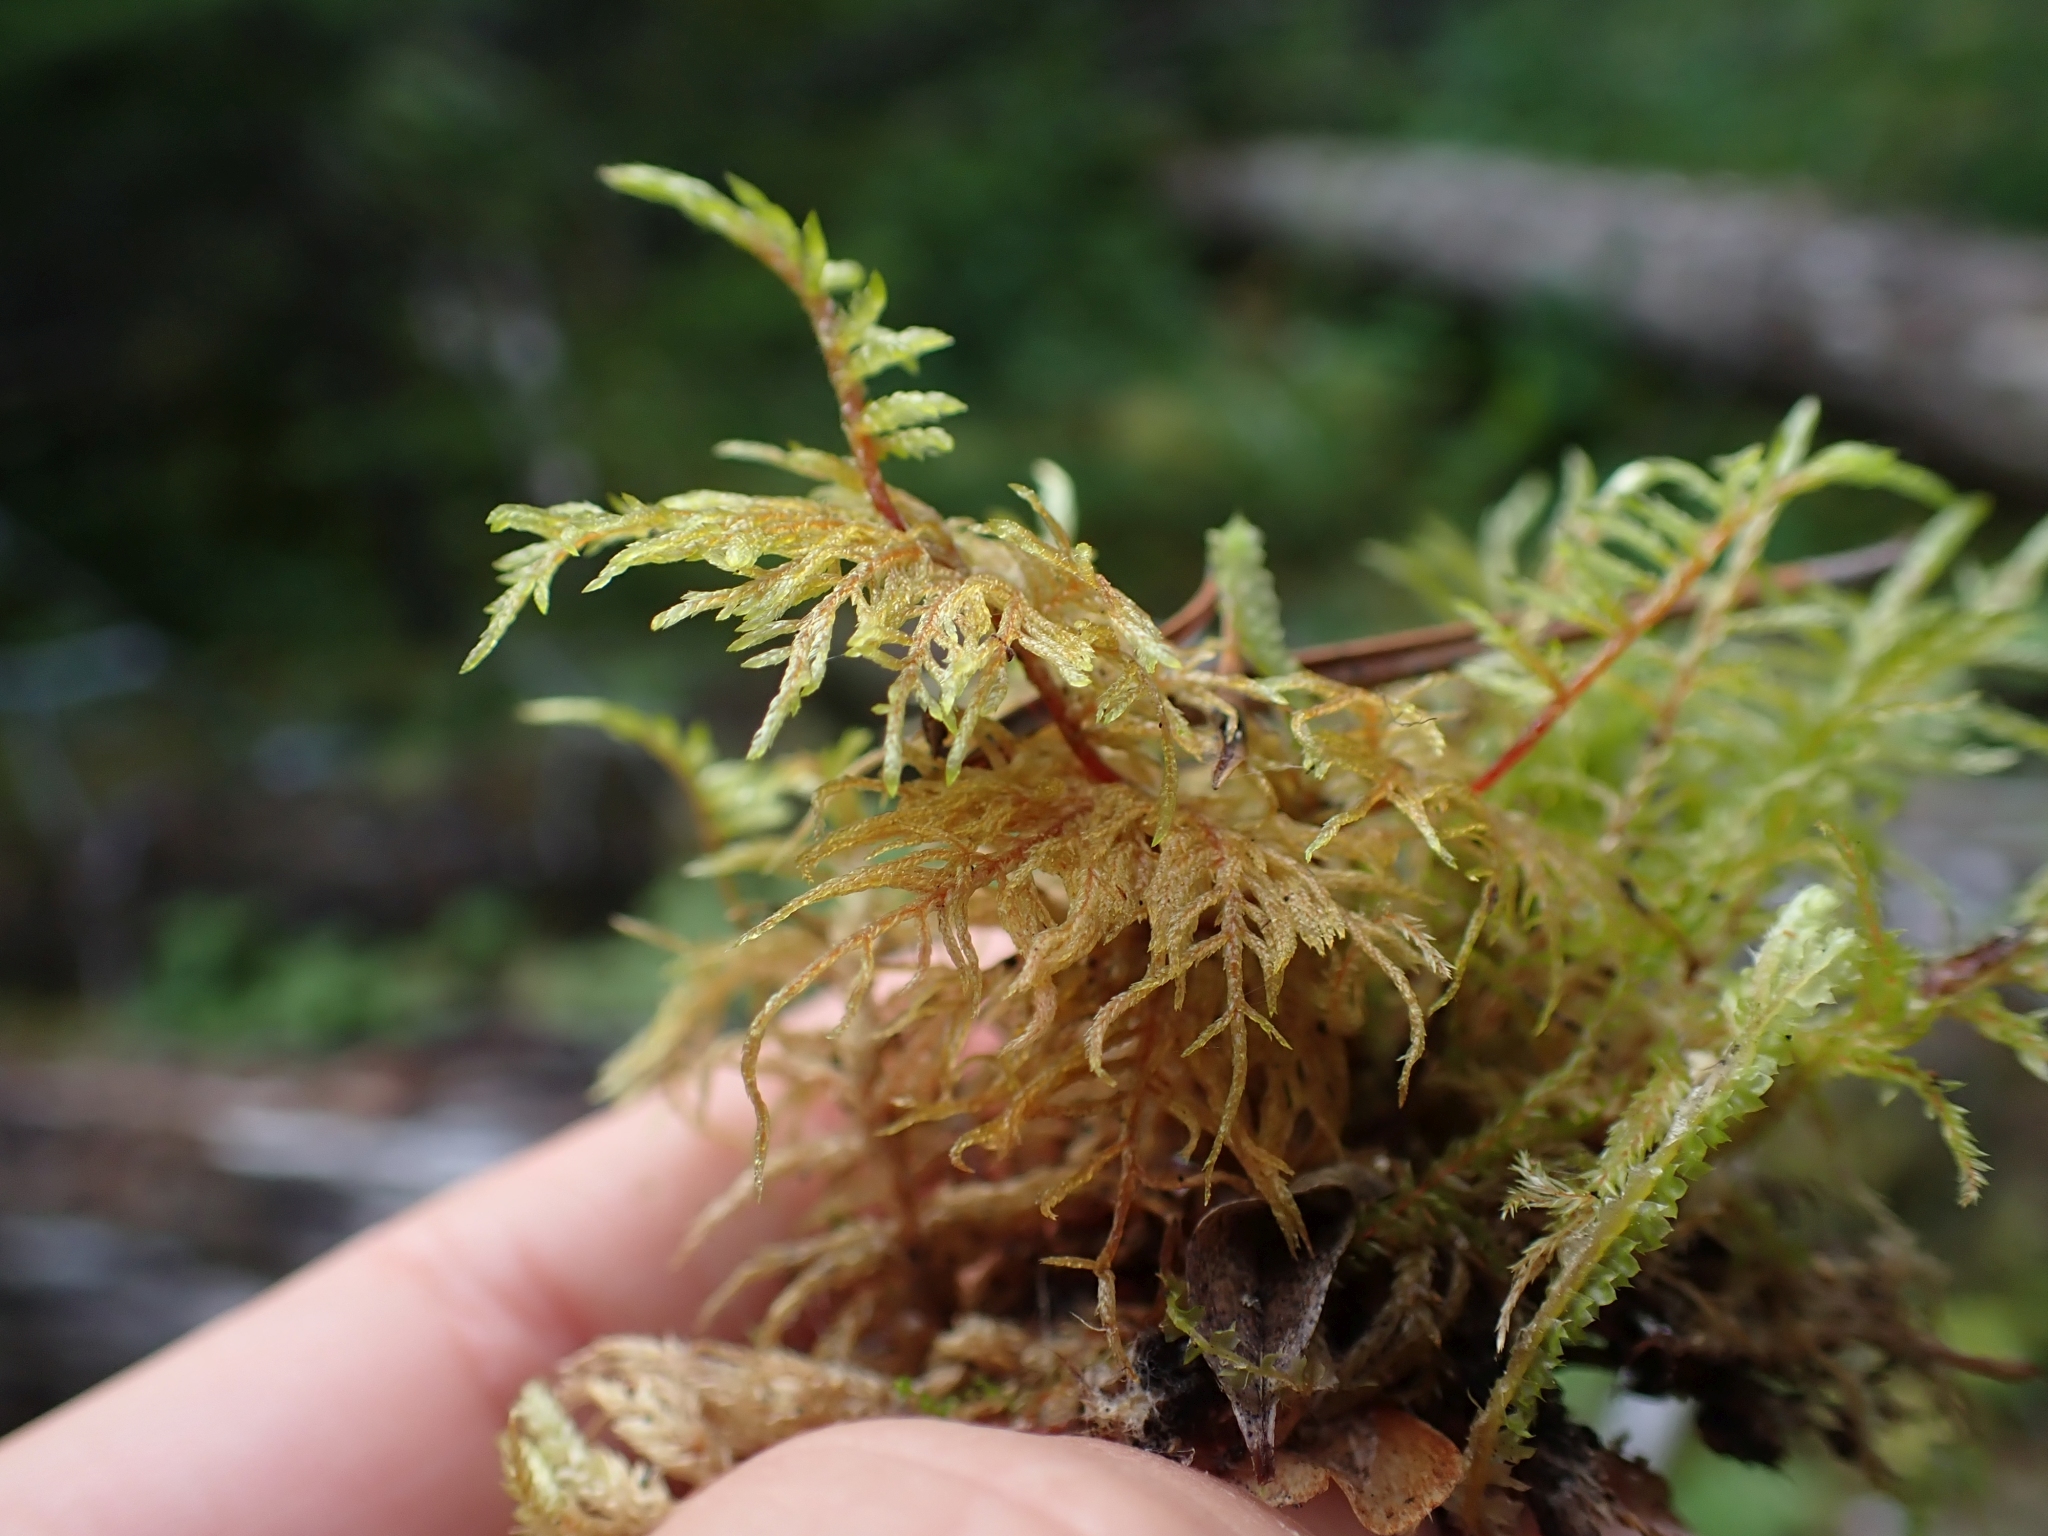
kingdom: Plantae
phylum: Bryophyta
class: Bryopsida
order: Hypnales
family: Hylocomiaceae
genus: Hylocomium
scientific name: Hylocomium splendens
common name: Stairstep moss
